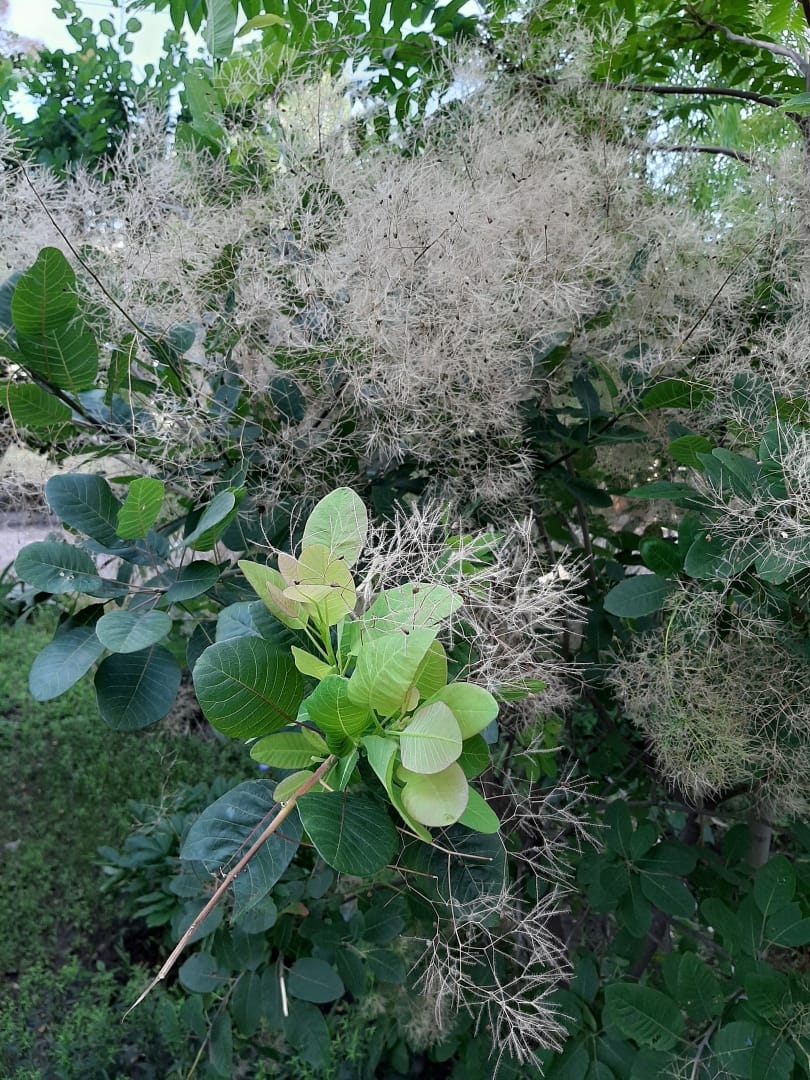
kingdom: Plantae
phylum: Tracheophyta
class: Magnoliopsida
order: Sapindales
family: Anacardiaceae
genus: Cotinus
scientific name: Cotinus coggygria
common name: Smoke-tree
